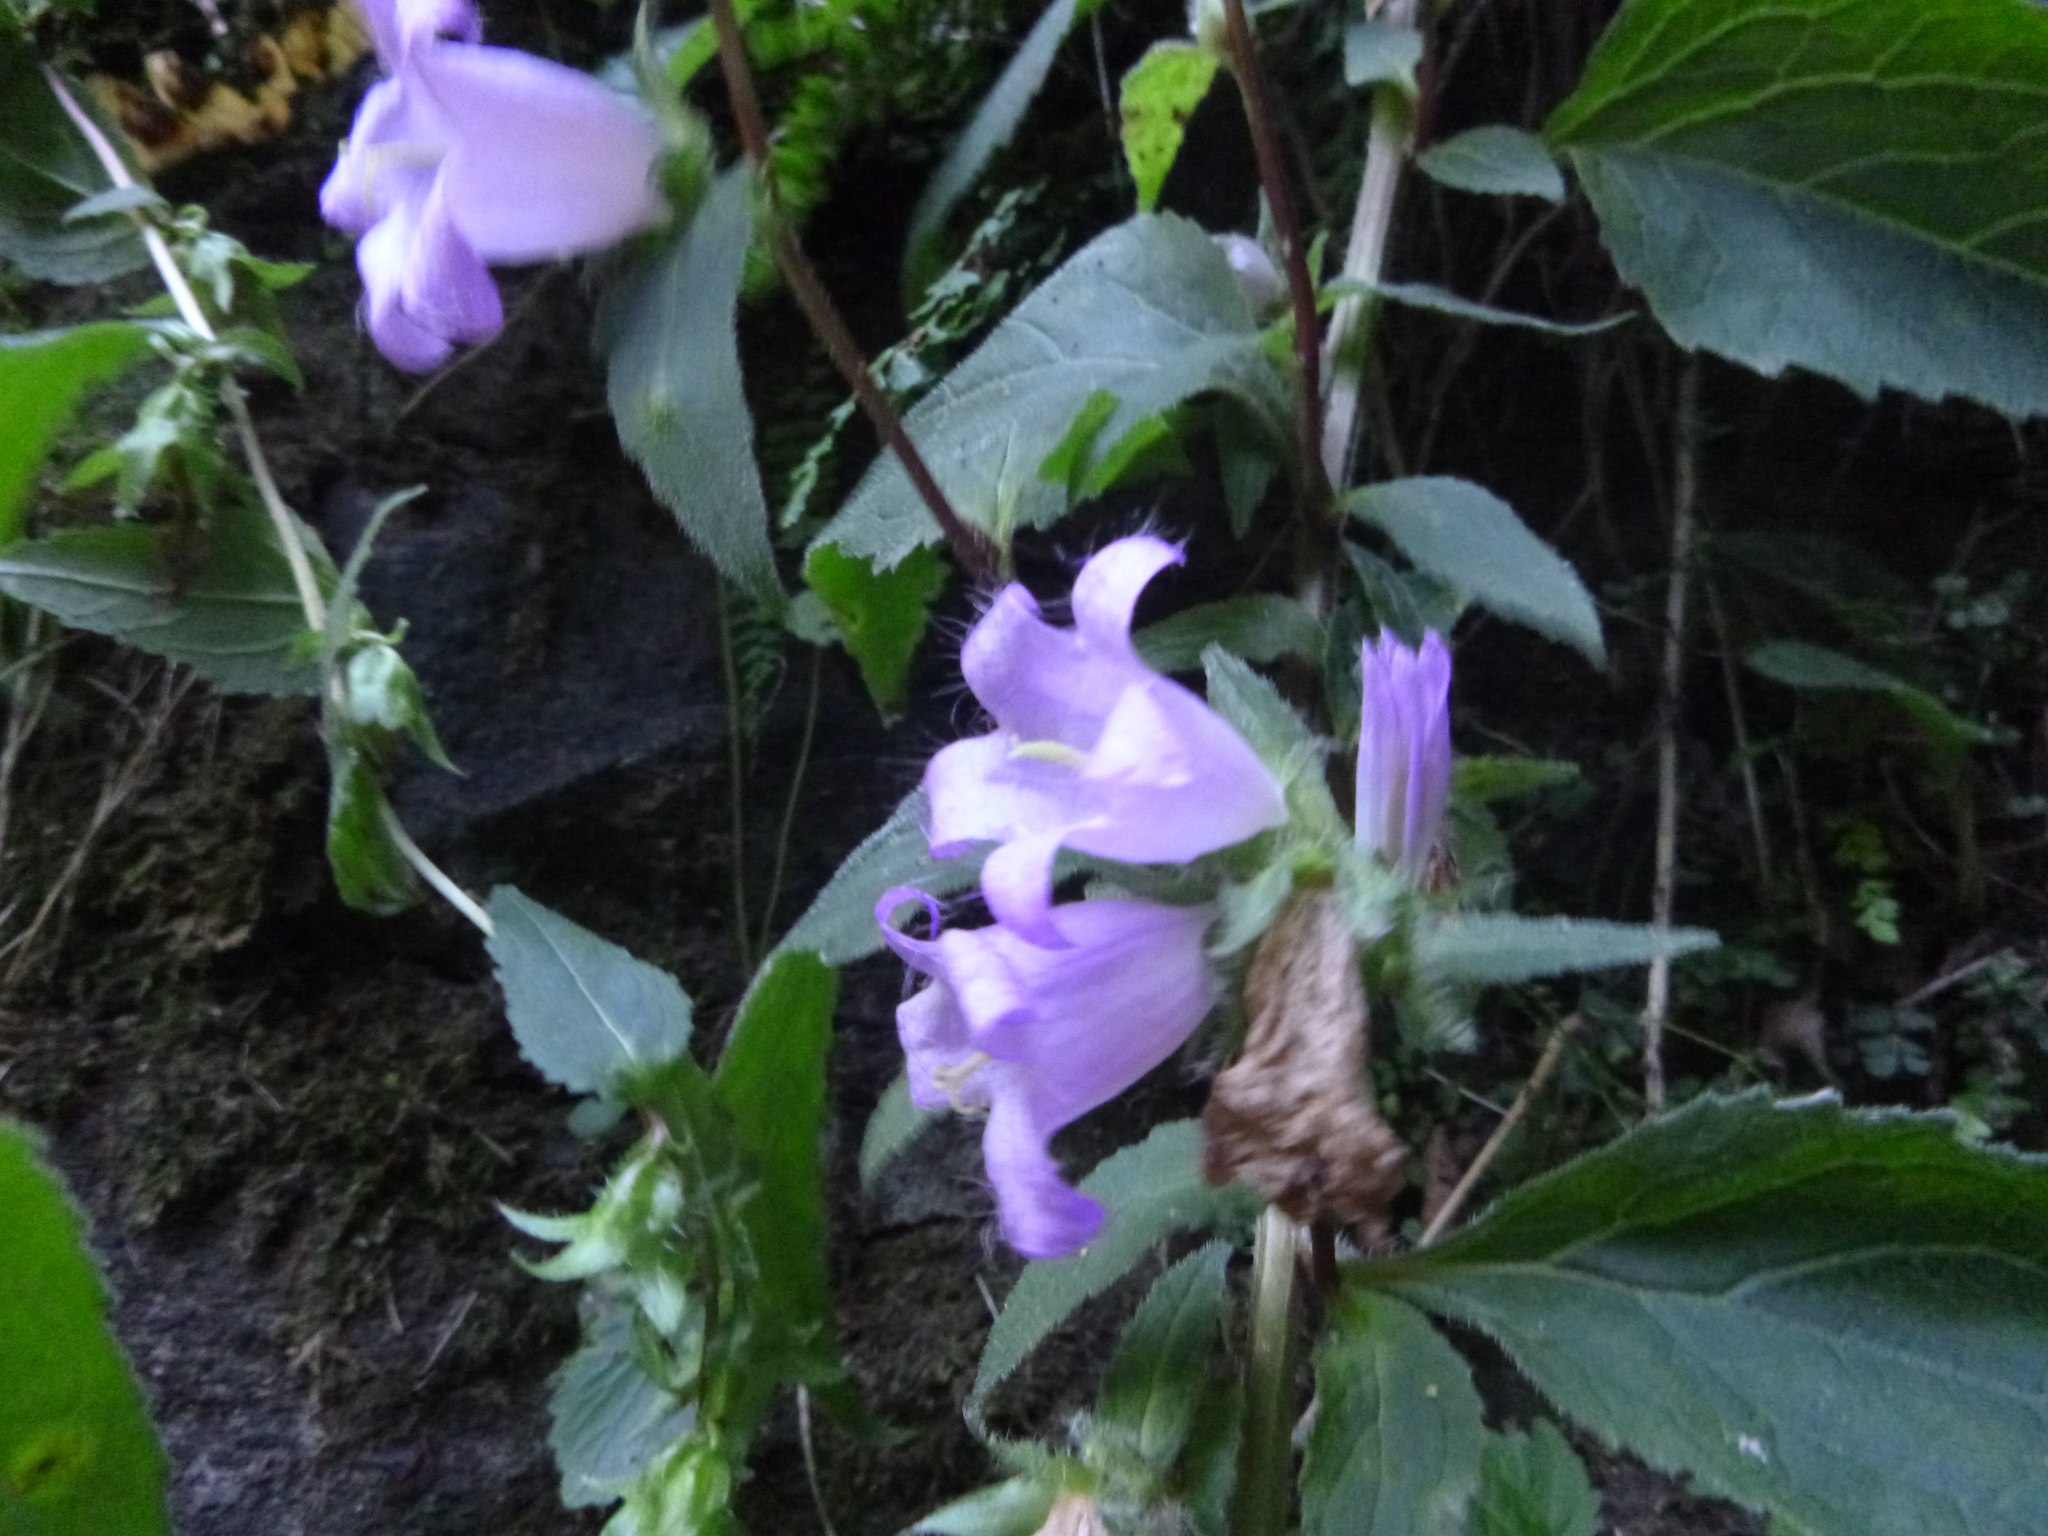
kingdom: Plantae
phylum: Tracheophyta
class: Magnoliopsida
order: Asterales
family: Campanulaceae
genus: Campanula
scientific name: Campanula trachelium
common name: Nettle-leaved bellflower
